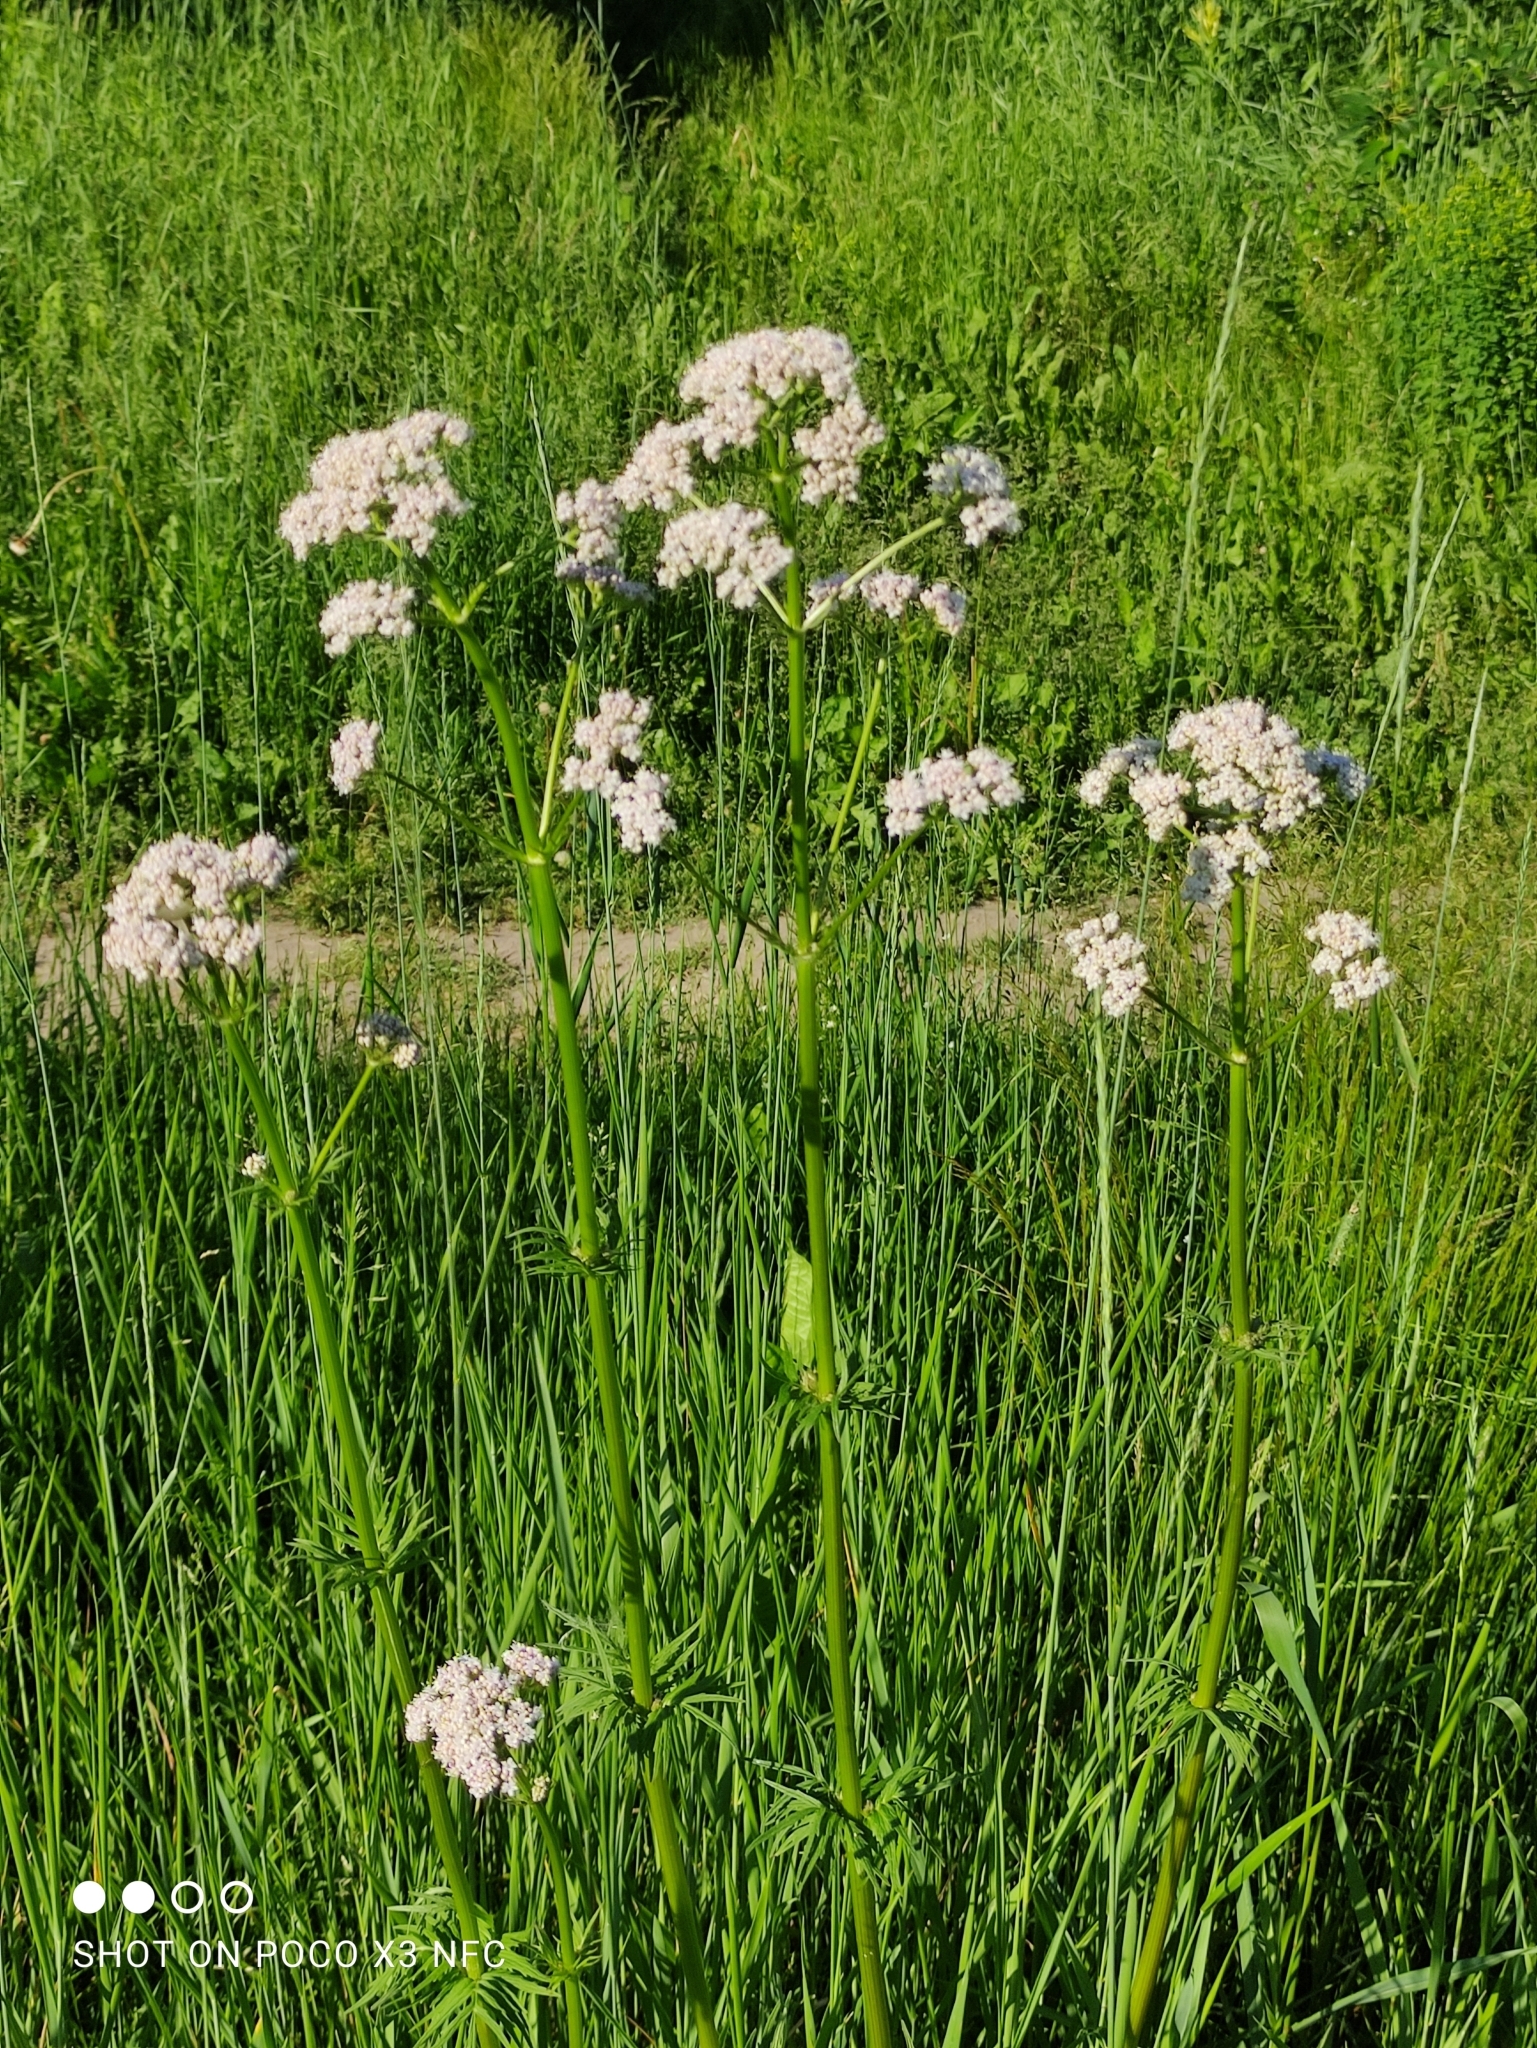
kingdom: Plantae
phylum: Tracheophyta
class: Magnoliopsida
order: Dipsacales
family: Caprifoliaceae
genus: Valeriana
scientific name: Valeriana officinalis
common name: Common valerian
